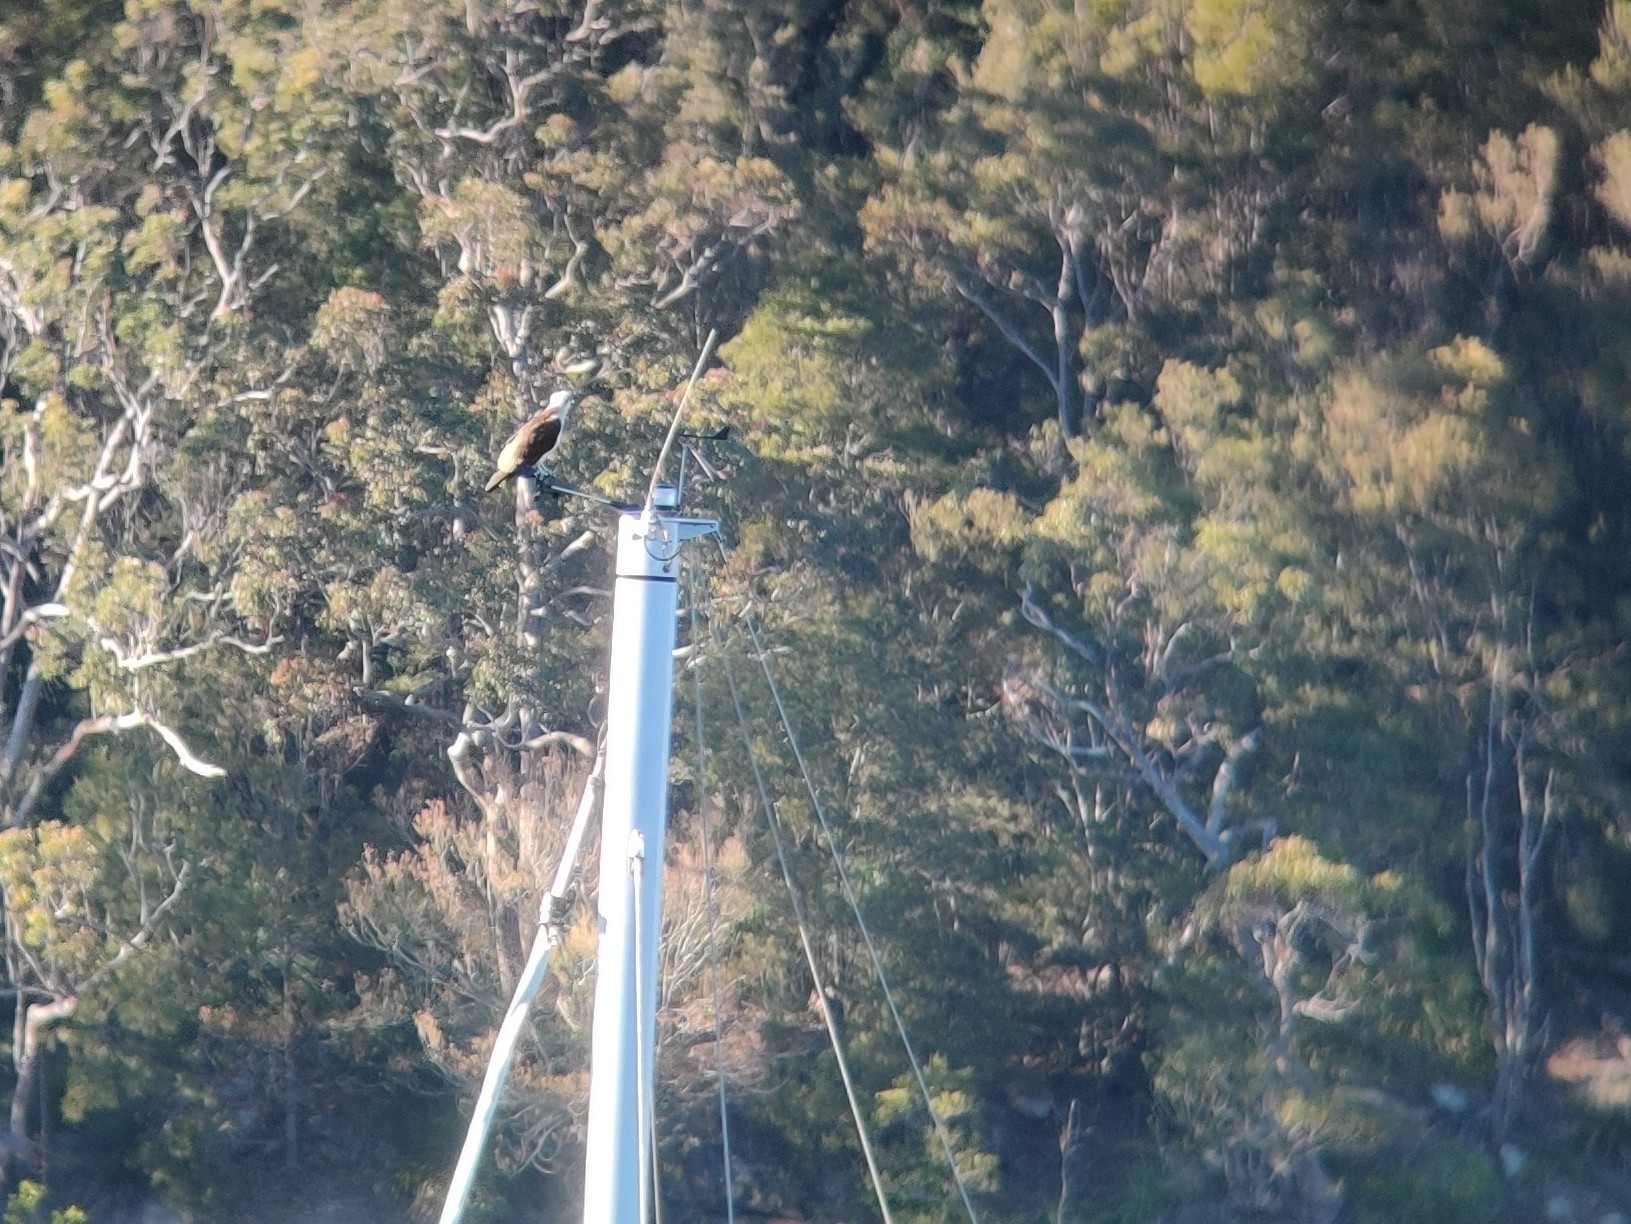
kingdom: Animalia
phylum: Chordata
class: Aves
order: Accipitriformes
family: Pandionidae
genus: Pandion
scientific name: Pandion haliaetus
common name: Osprey
